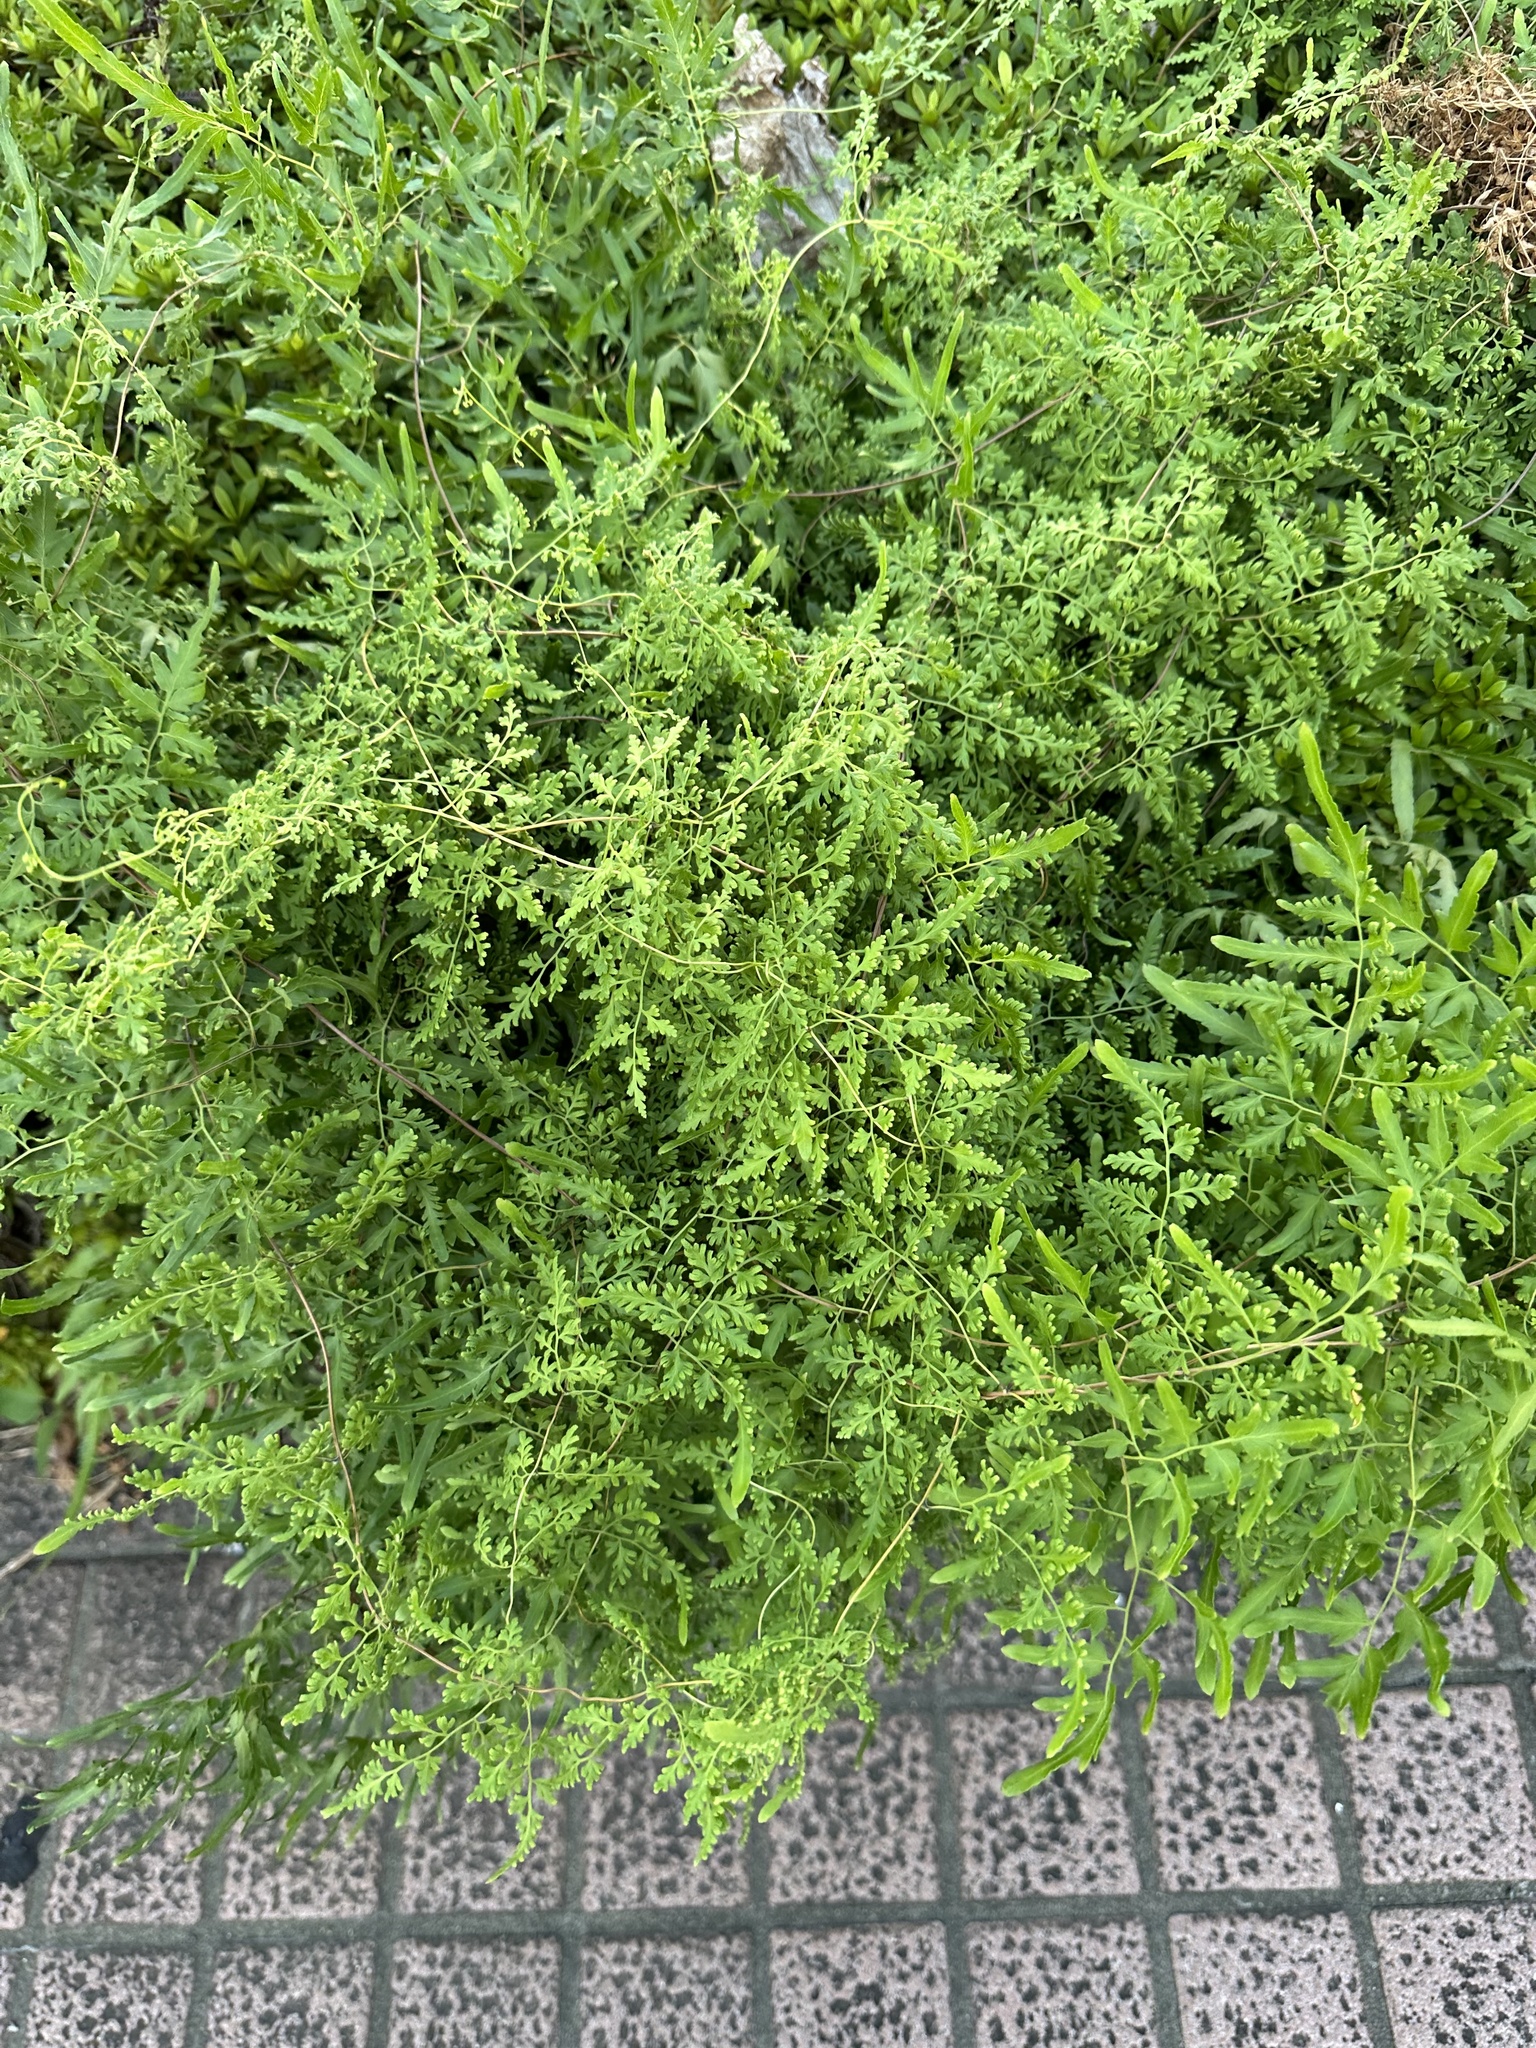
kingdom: Plantae
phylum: Tracheophyta
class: Polypodiopsida
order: Schizaeales
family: Lygodiaceae
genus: Lygodium
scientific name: Lygodium japonicum
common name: Japanese climbing fern
